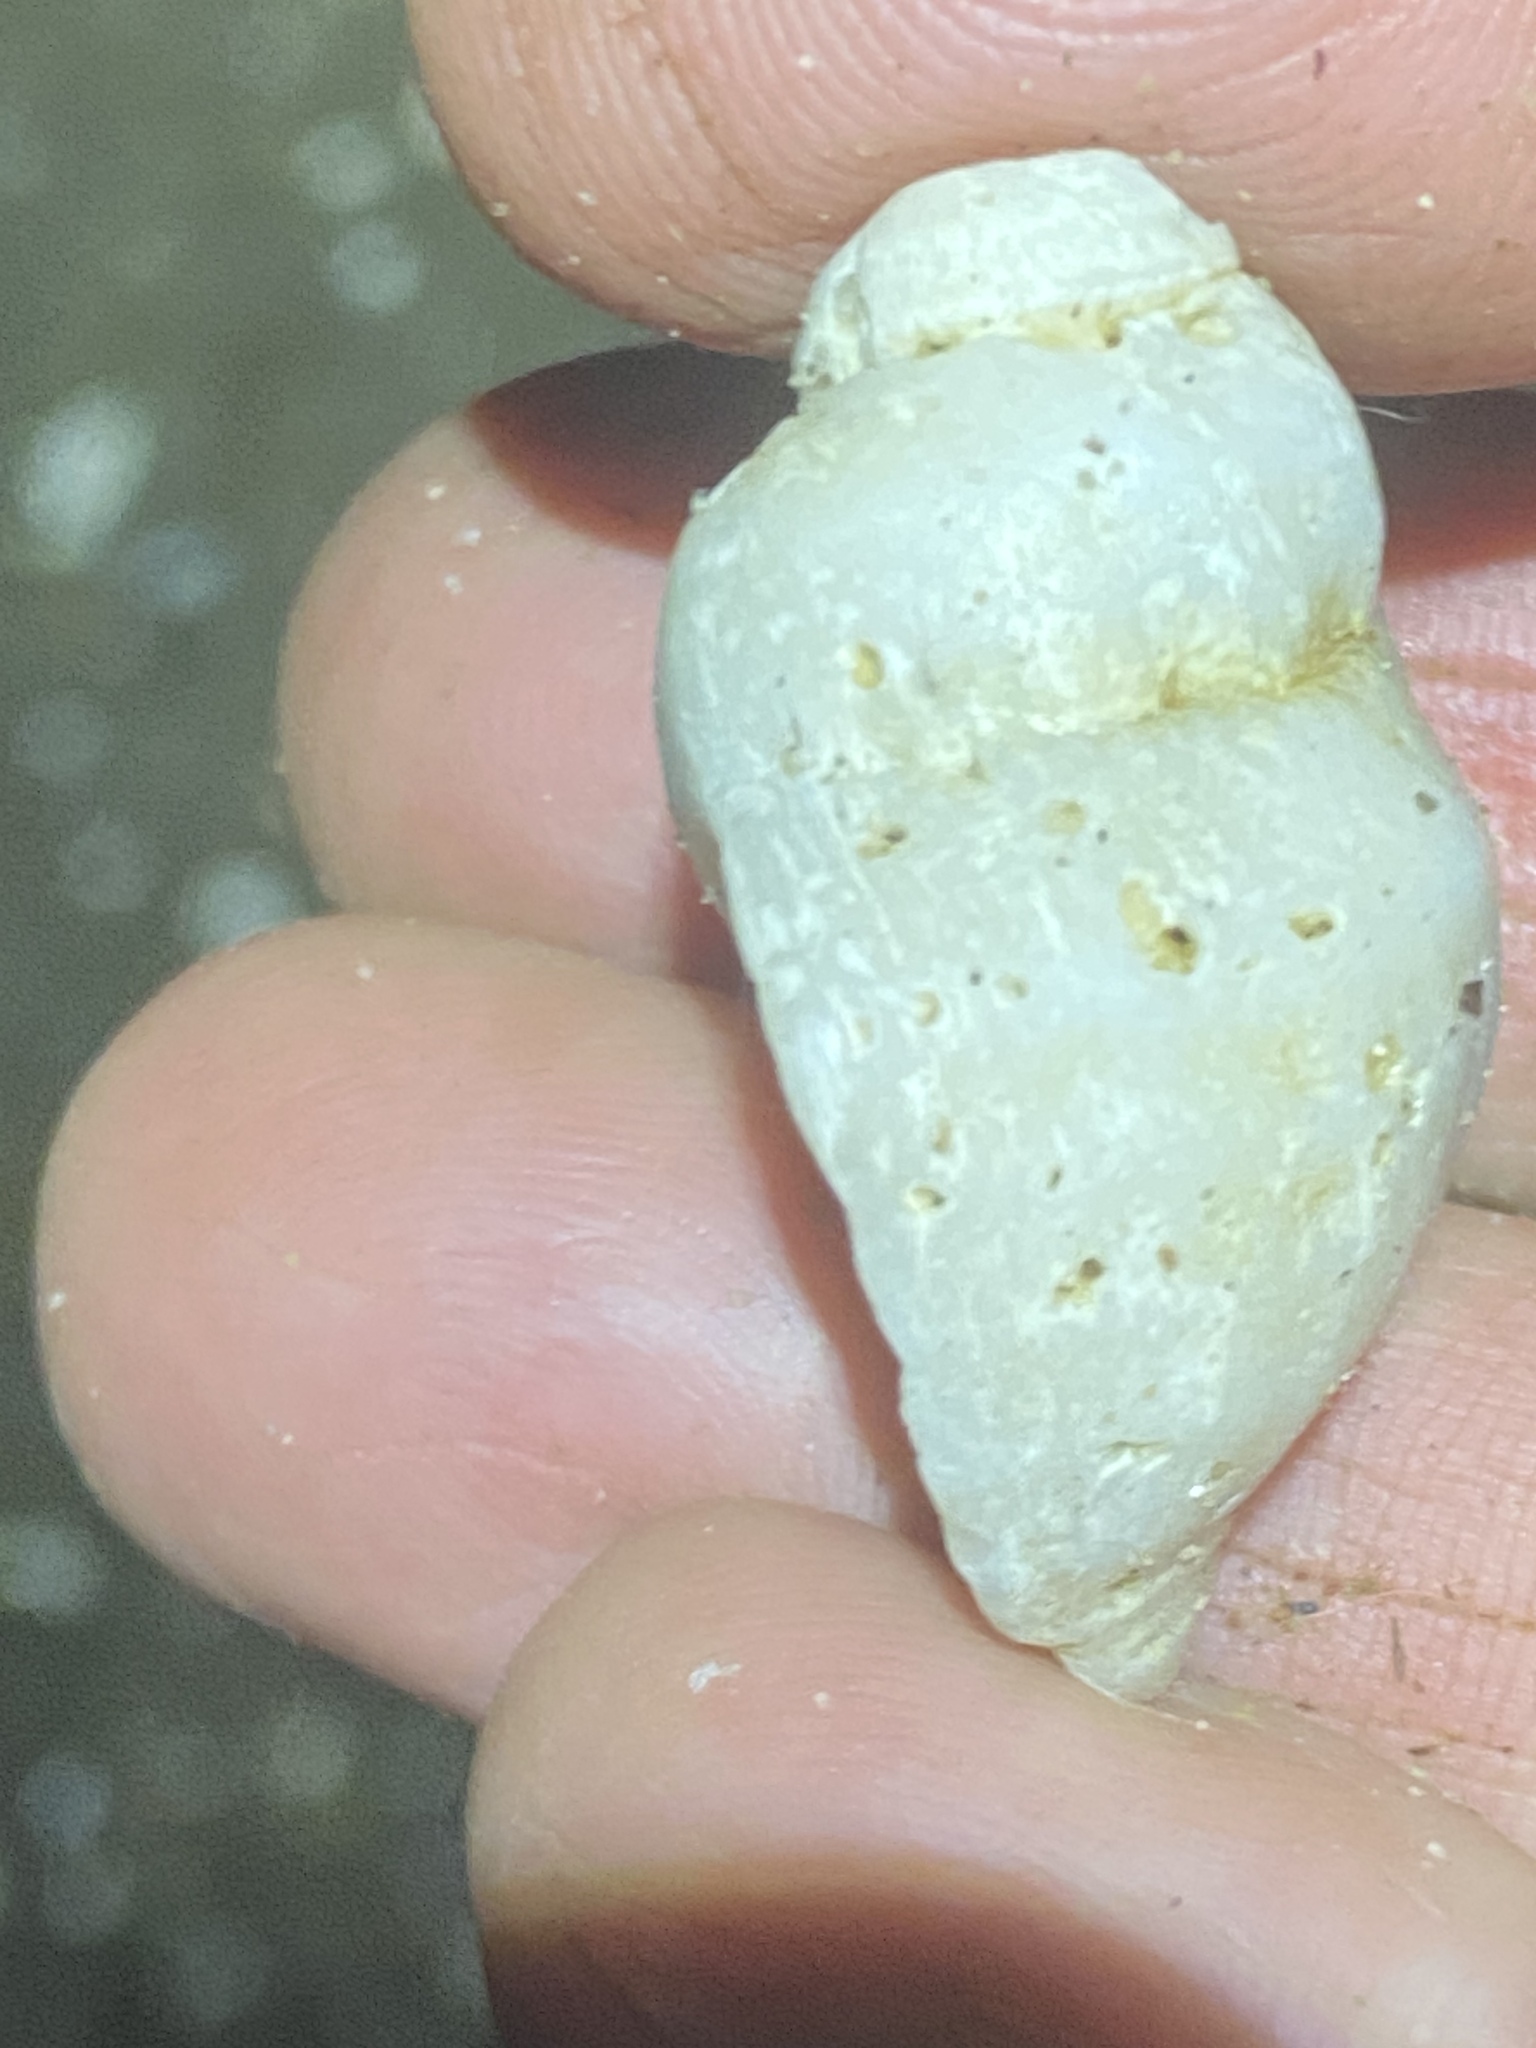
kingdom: Animalia
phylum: Mollusca
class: Gastropoda
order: Neogastropoda
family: Muricidae
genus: Nucella
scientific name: Nucella lamellosa
